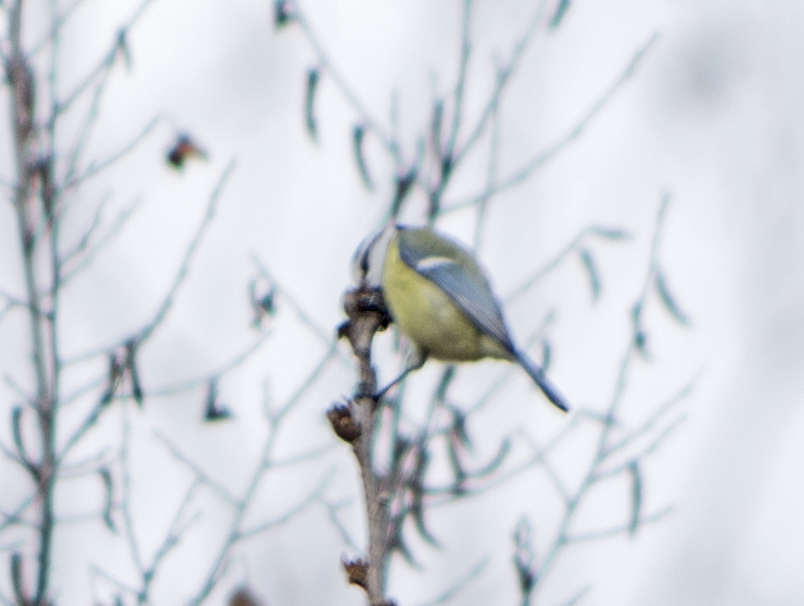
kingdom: Animalia
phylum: Chordata
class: Aves
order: Passeriformes
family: Paridae
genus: Cyanistes
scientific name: Cyanistes caeruleus
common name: Eurasian blue tit
